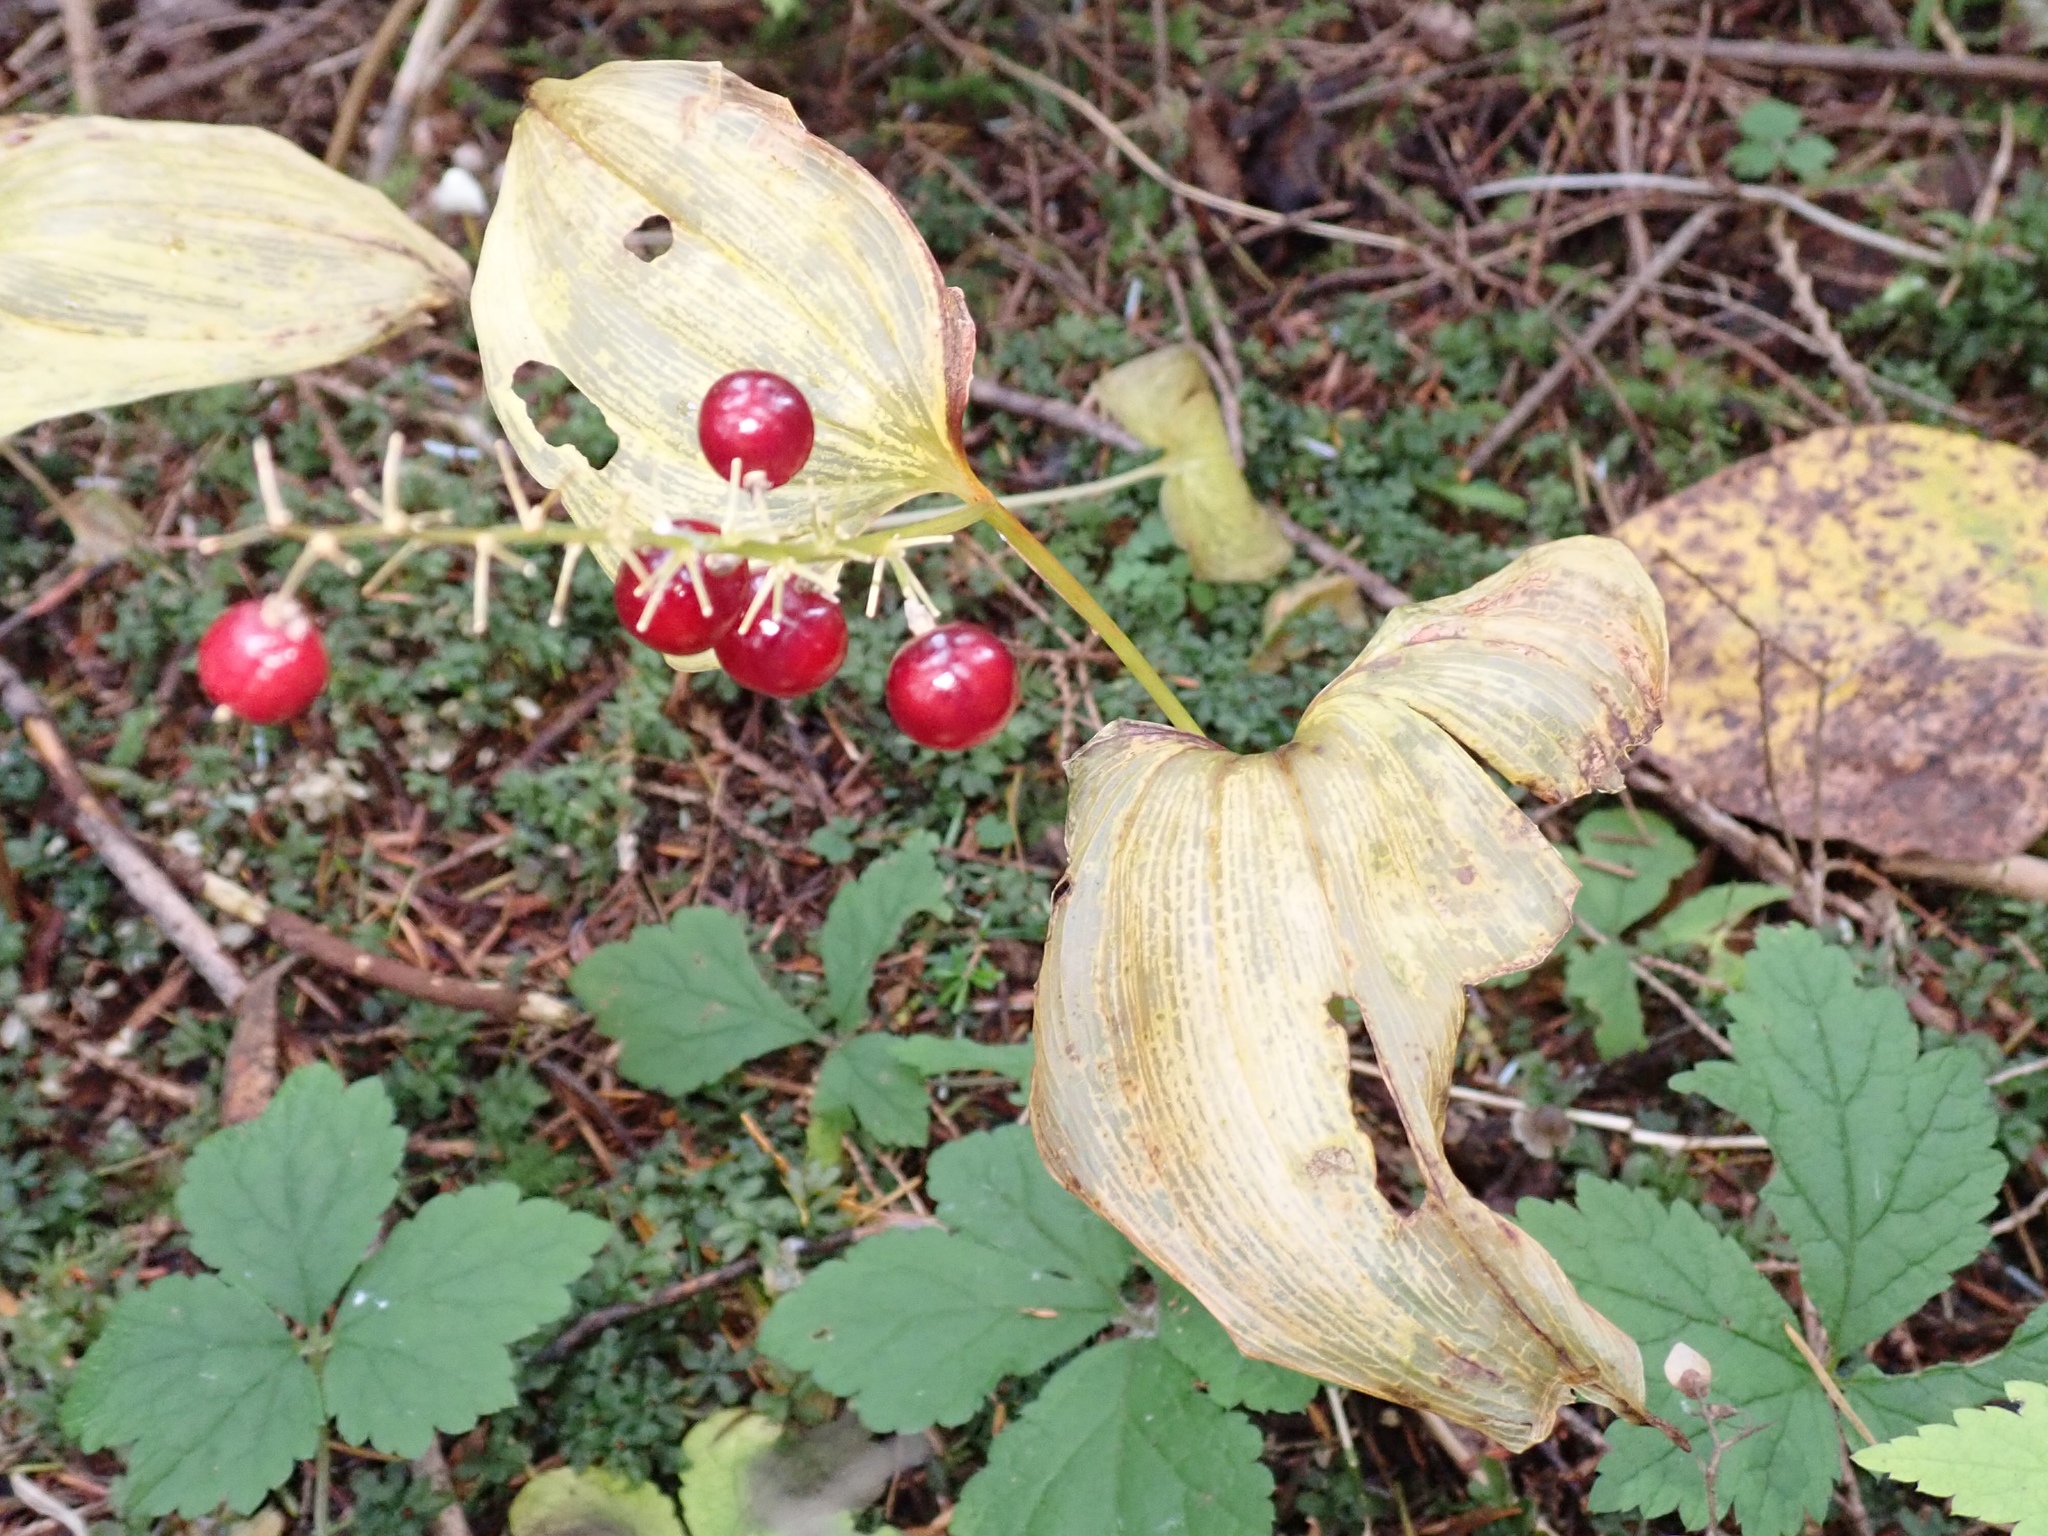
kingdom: Plantae
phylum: Tracheophyta
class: Liliopsida
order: Asparagales
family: Asparagaceae
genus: Maianthemum
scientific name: Maianthemum dilatatum
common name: False lily-of-the-valley
